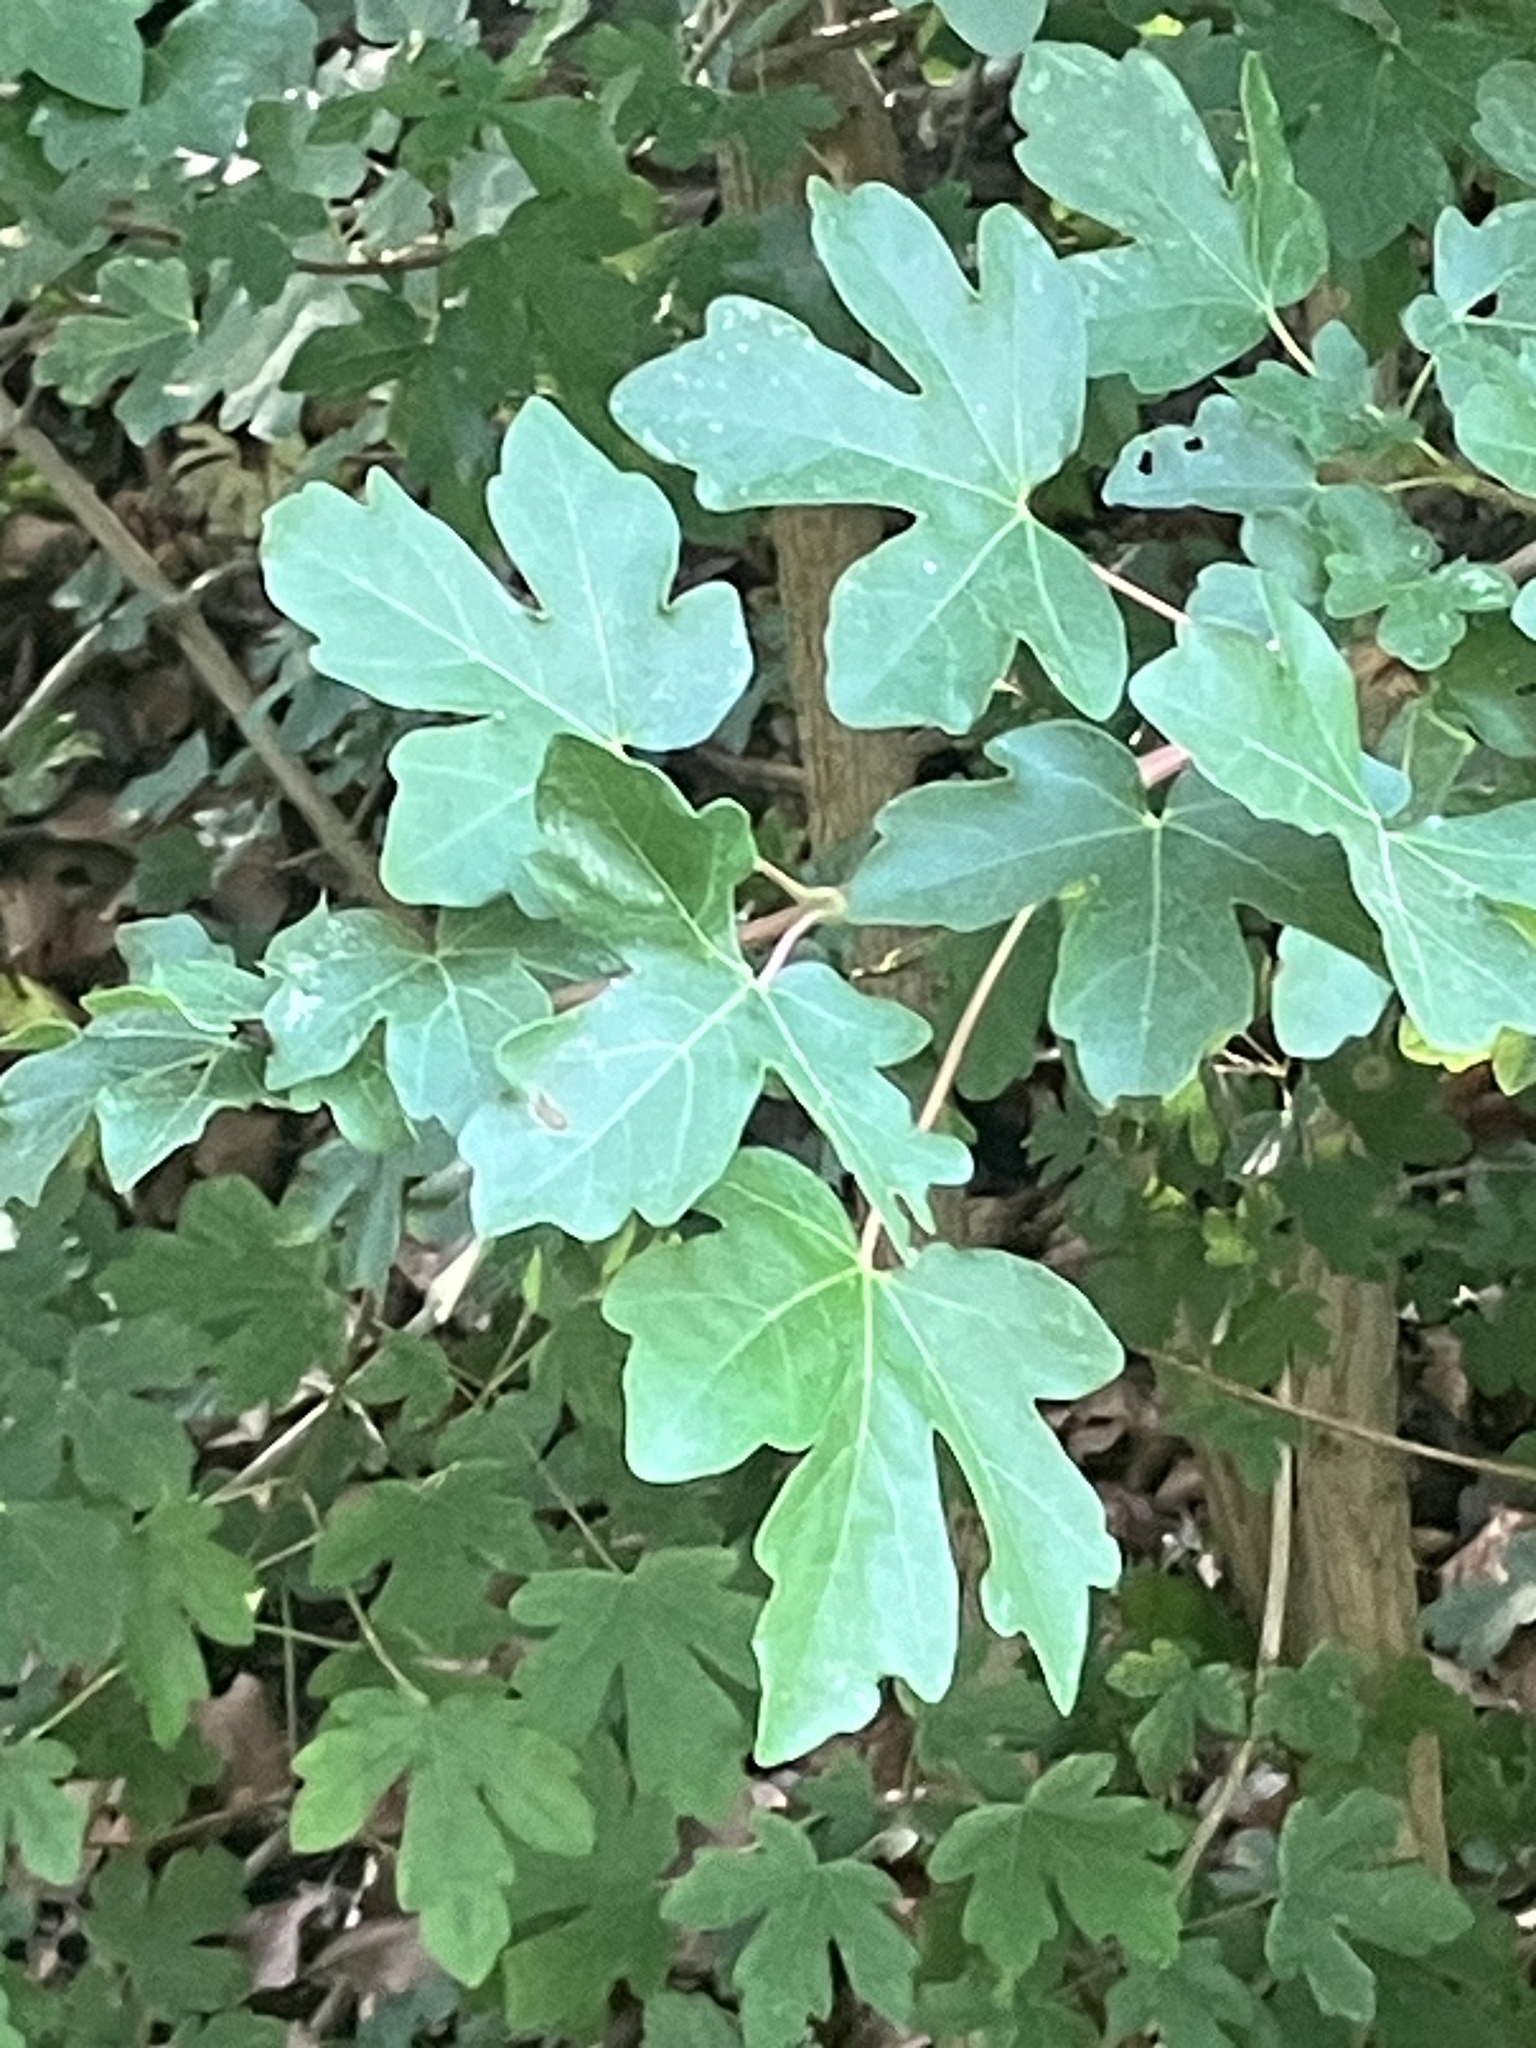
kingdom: Plantae
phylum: Tracheophyta
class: Magnoliopsida
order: Sapindales
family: Sapindaceae
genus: Acer
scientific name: Acer campestre
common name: Field maple
